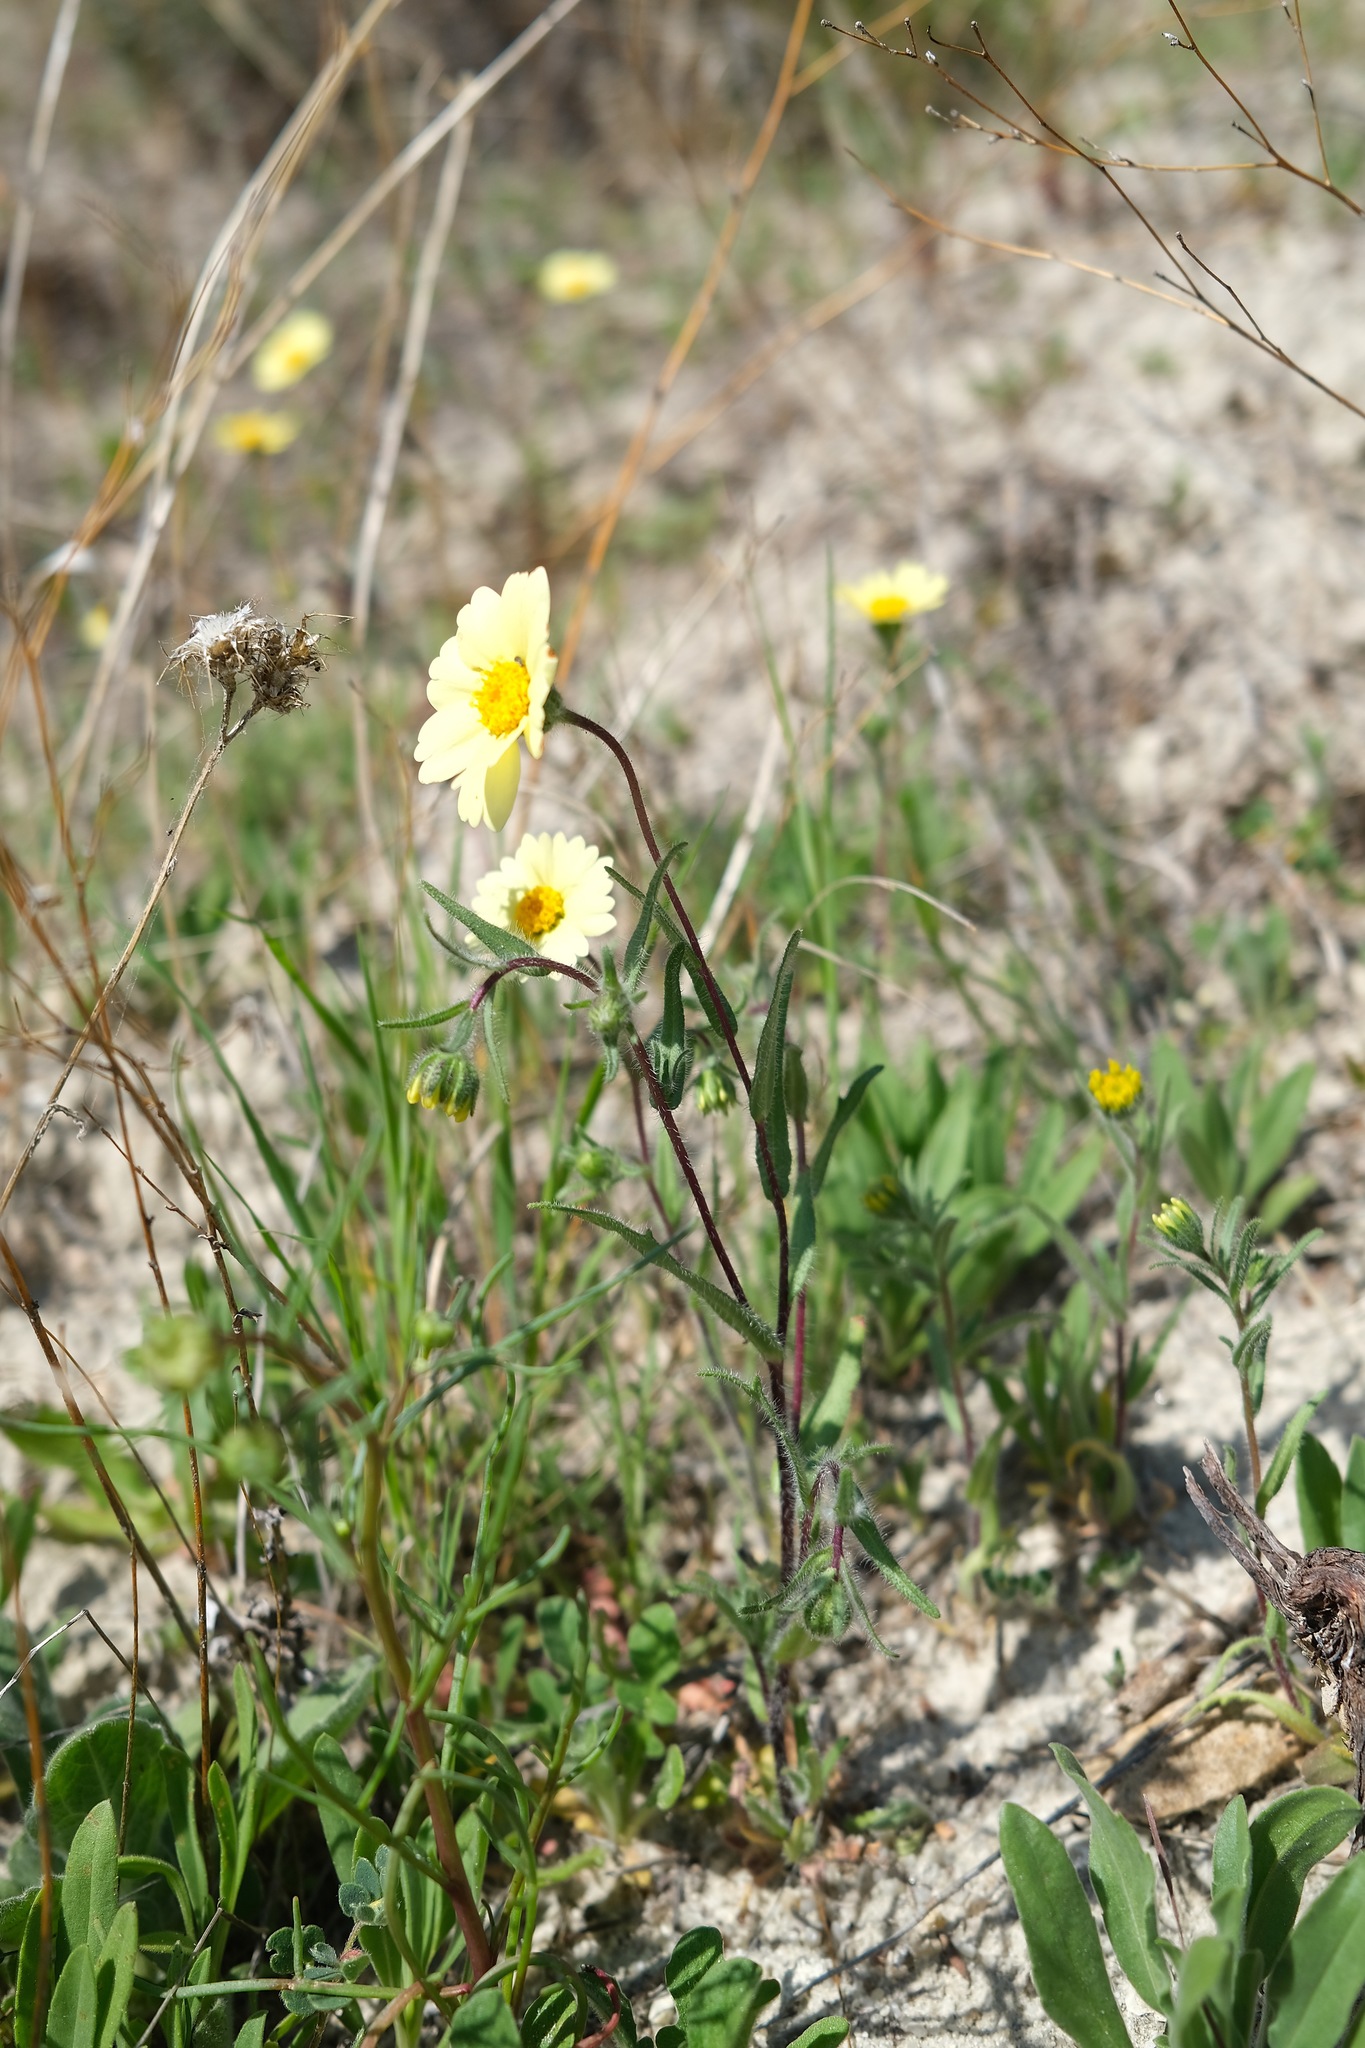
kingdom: Plantae
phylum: Tracheophyta
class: Magnoliopsida
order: Asterales
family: Asteraceae
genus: Layia
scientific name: Layia glandulosa
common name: White layia
